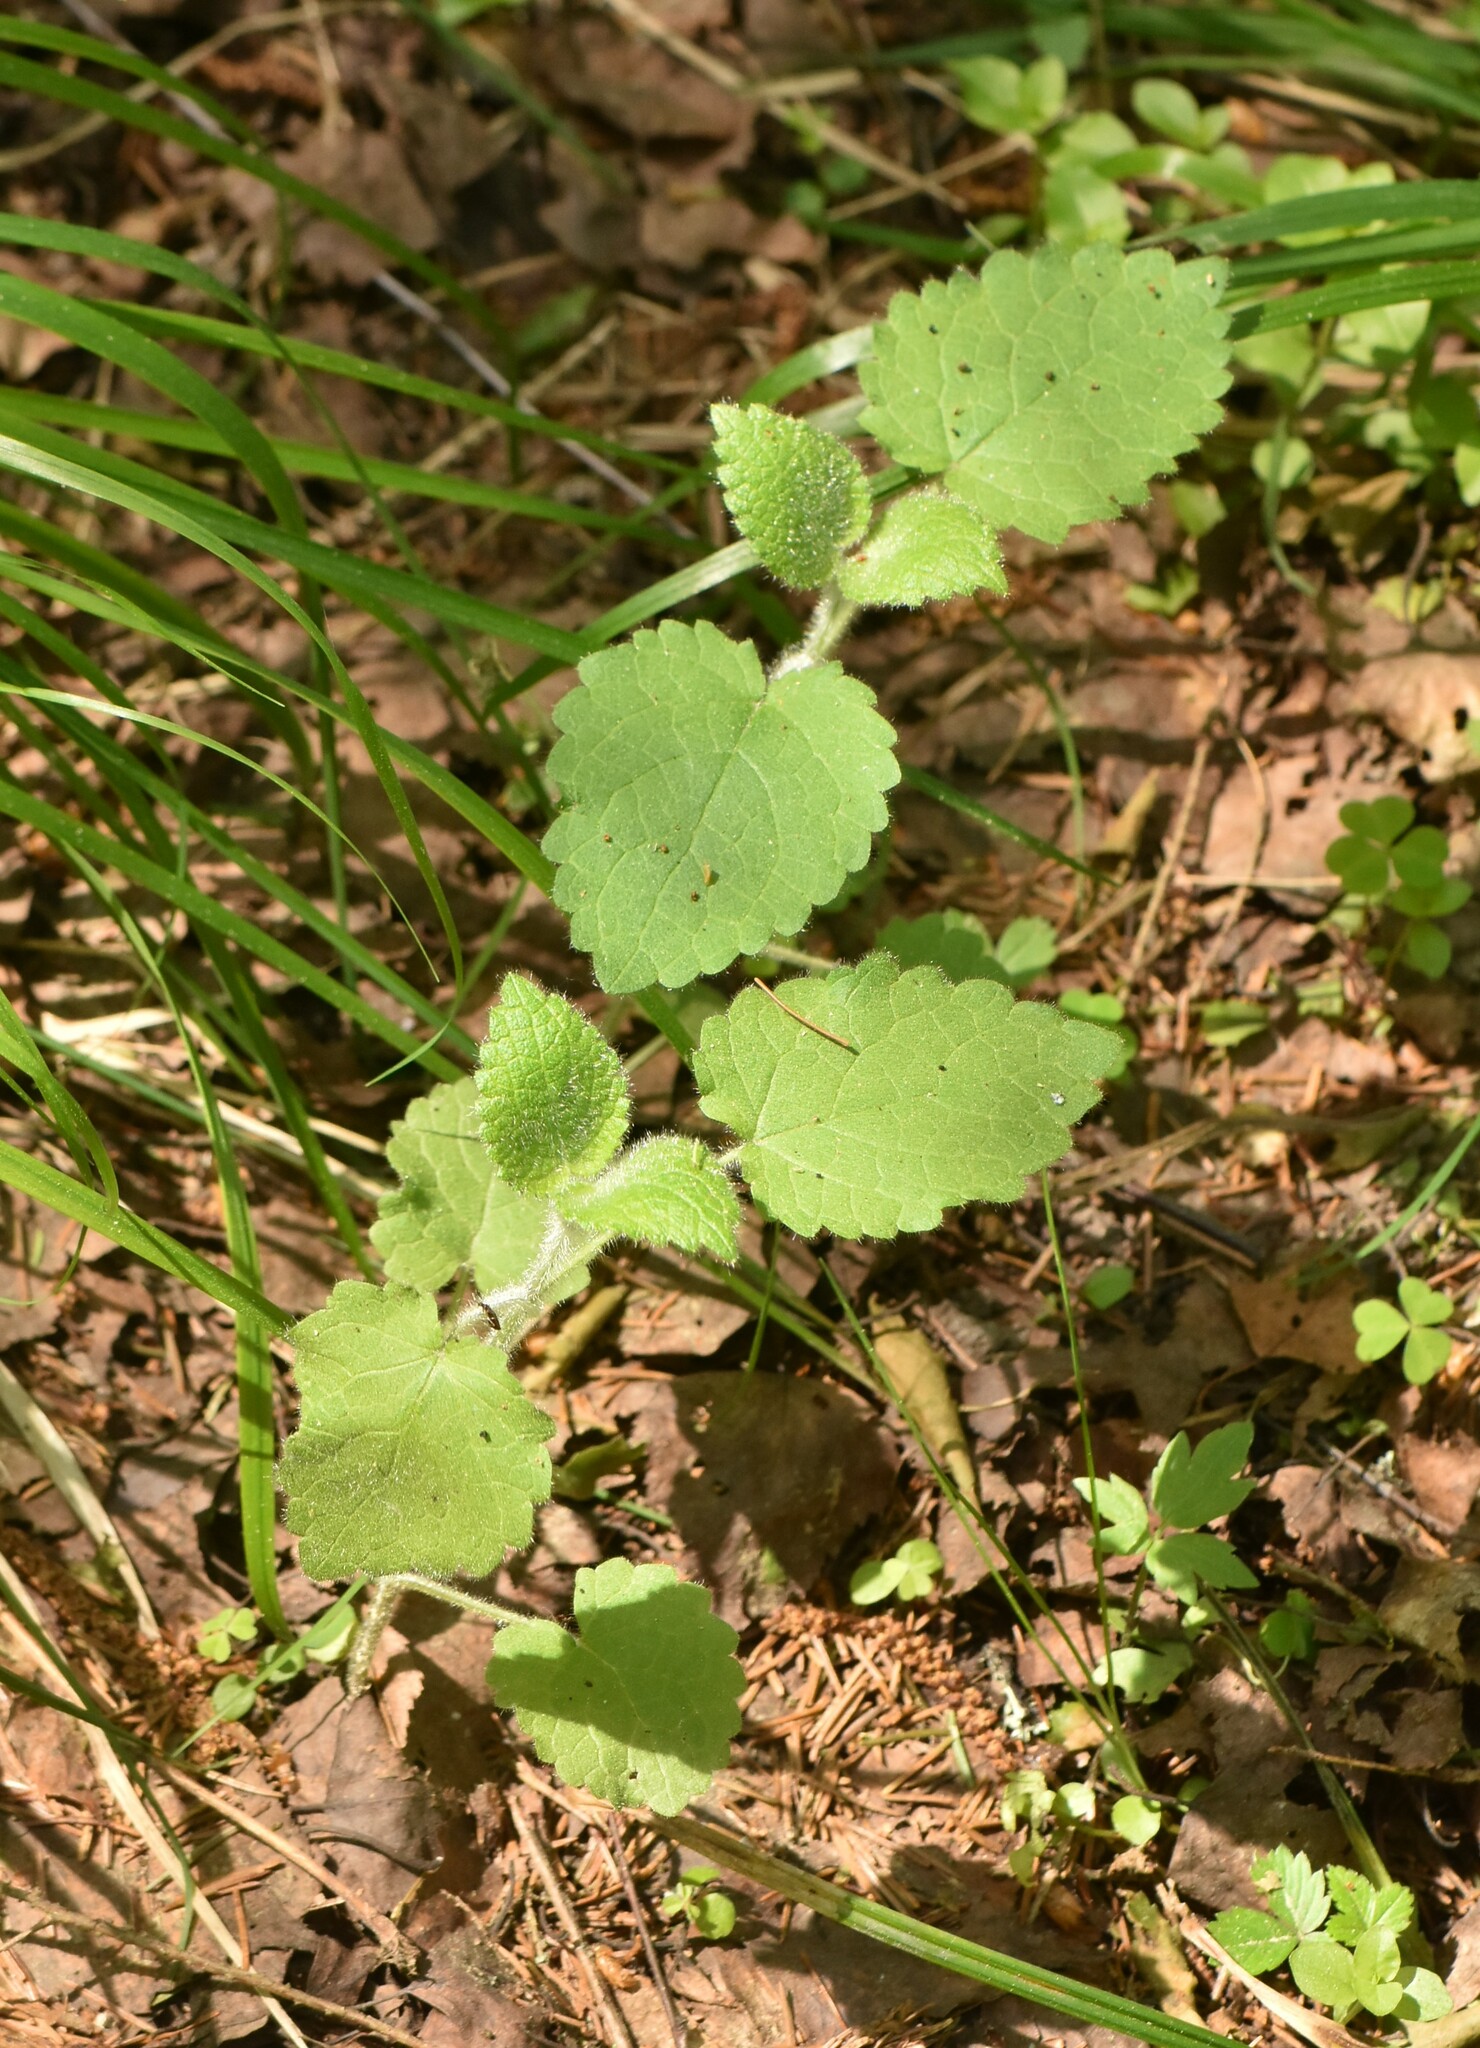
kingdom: Plantae
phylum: Tracheophyta
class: Magnoliopsida
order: Lamiales
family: Lamiaceae
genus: Stachys
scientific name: Stachys sylvatica
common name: Hedge woundwort
